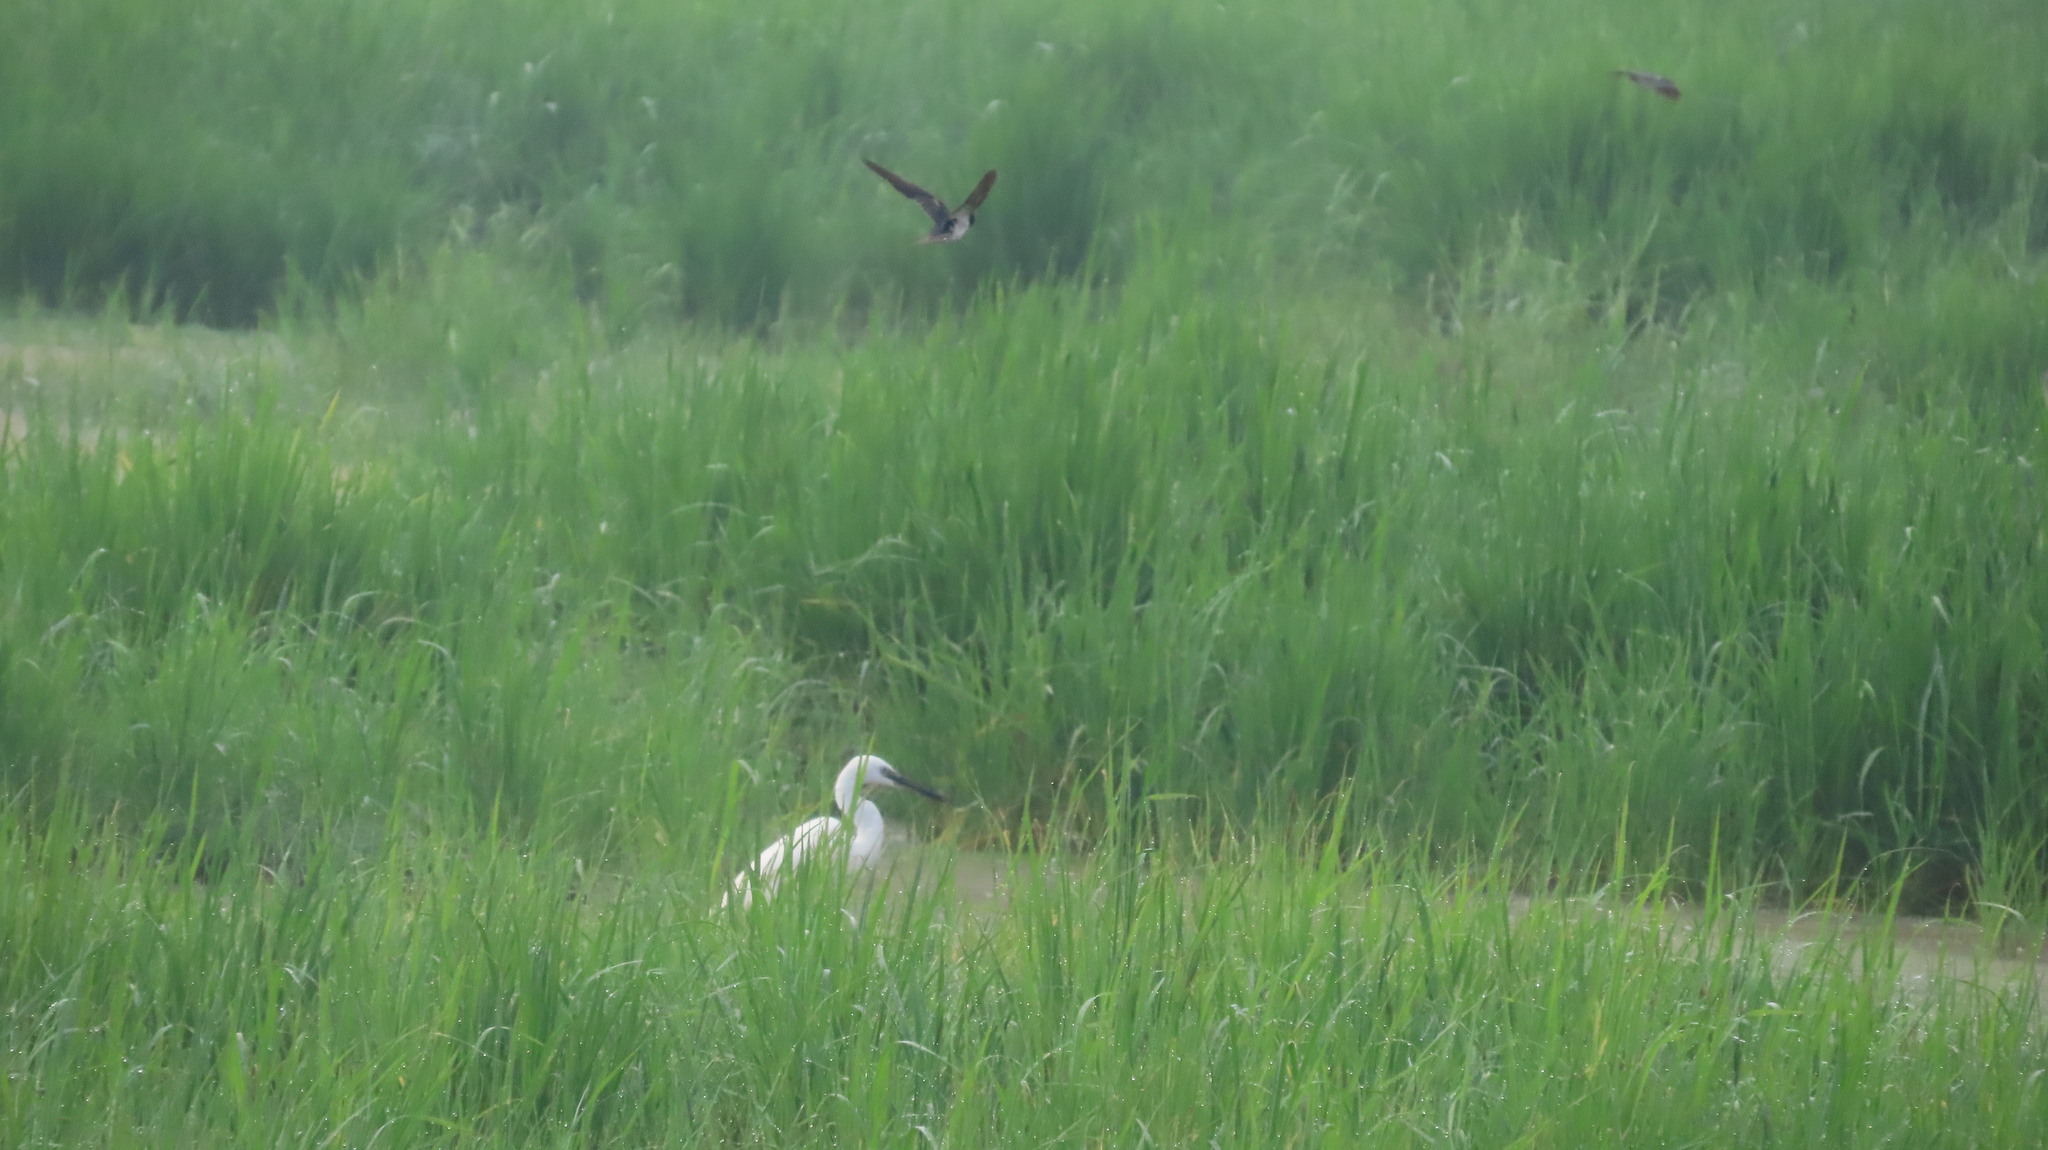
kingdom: Animalia
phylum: Chordata
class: Aves
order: Passeriformes
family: Hirundinidae
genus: Hirundo
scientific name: Hirundo rustica
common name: Barn swallow
